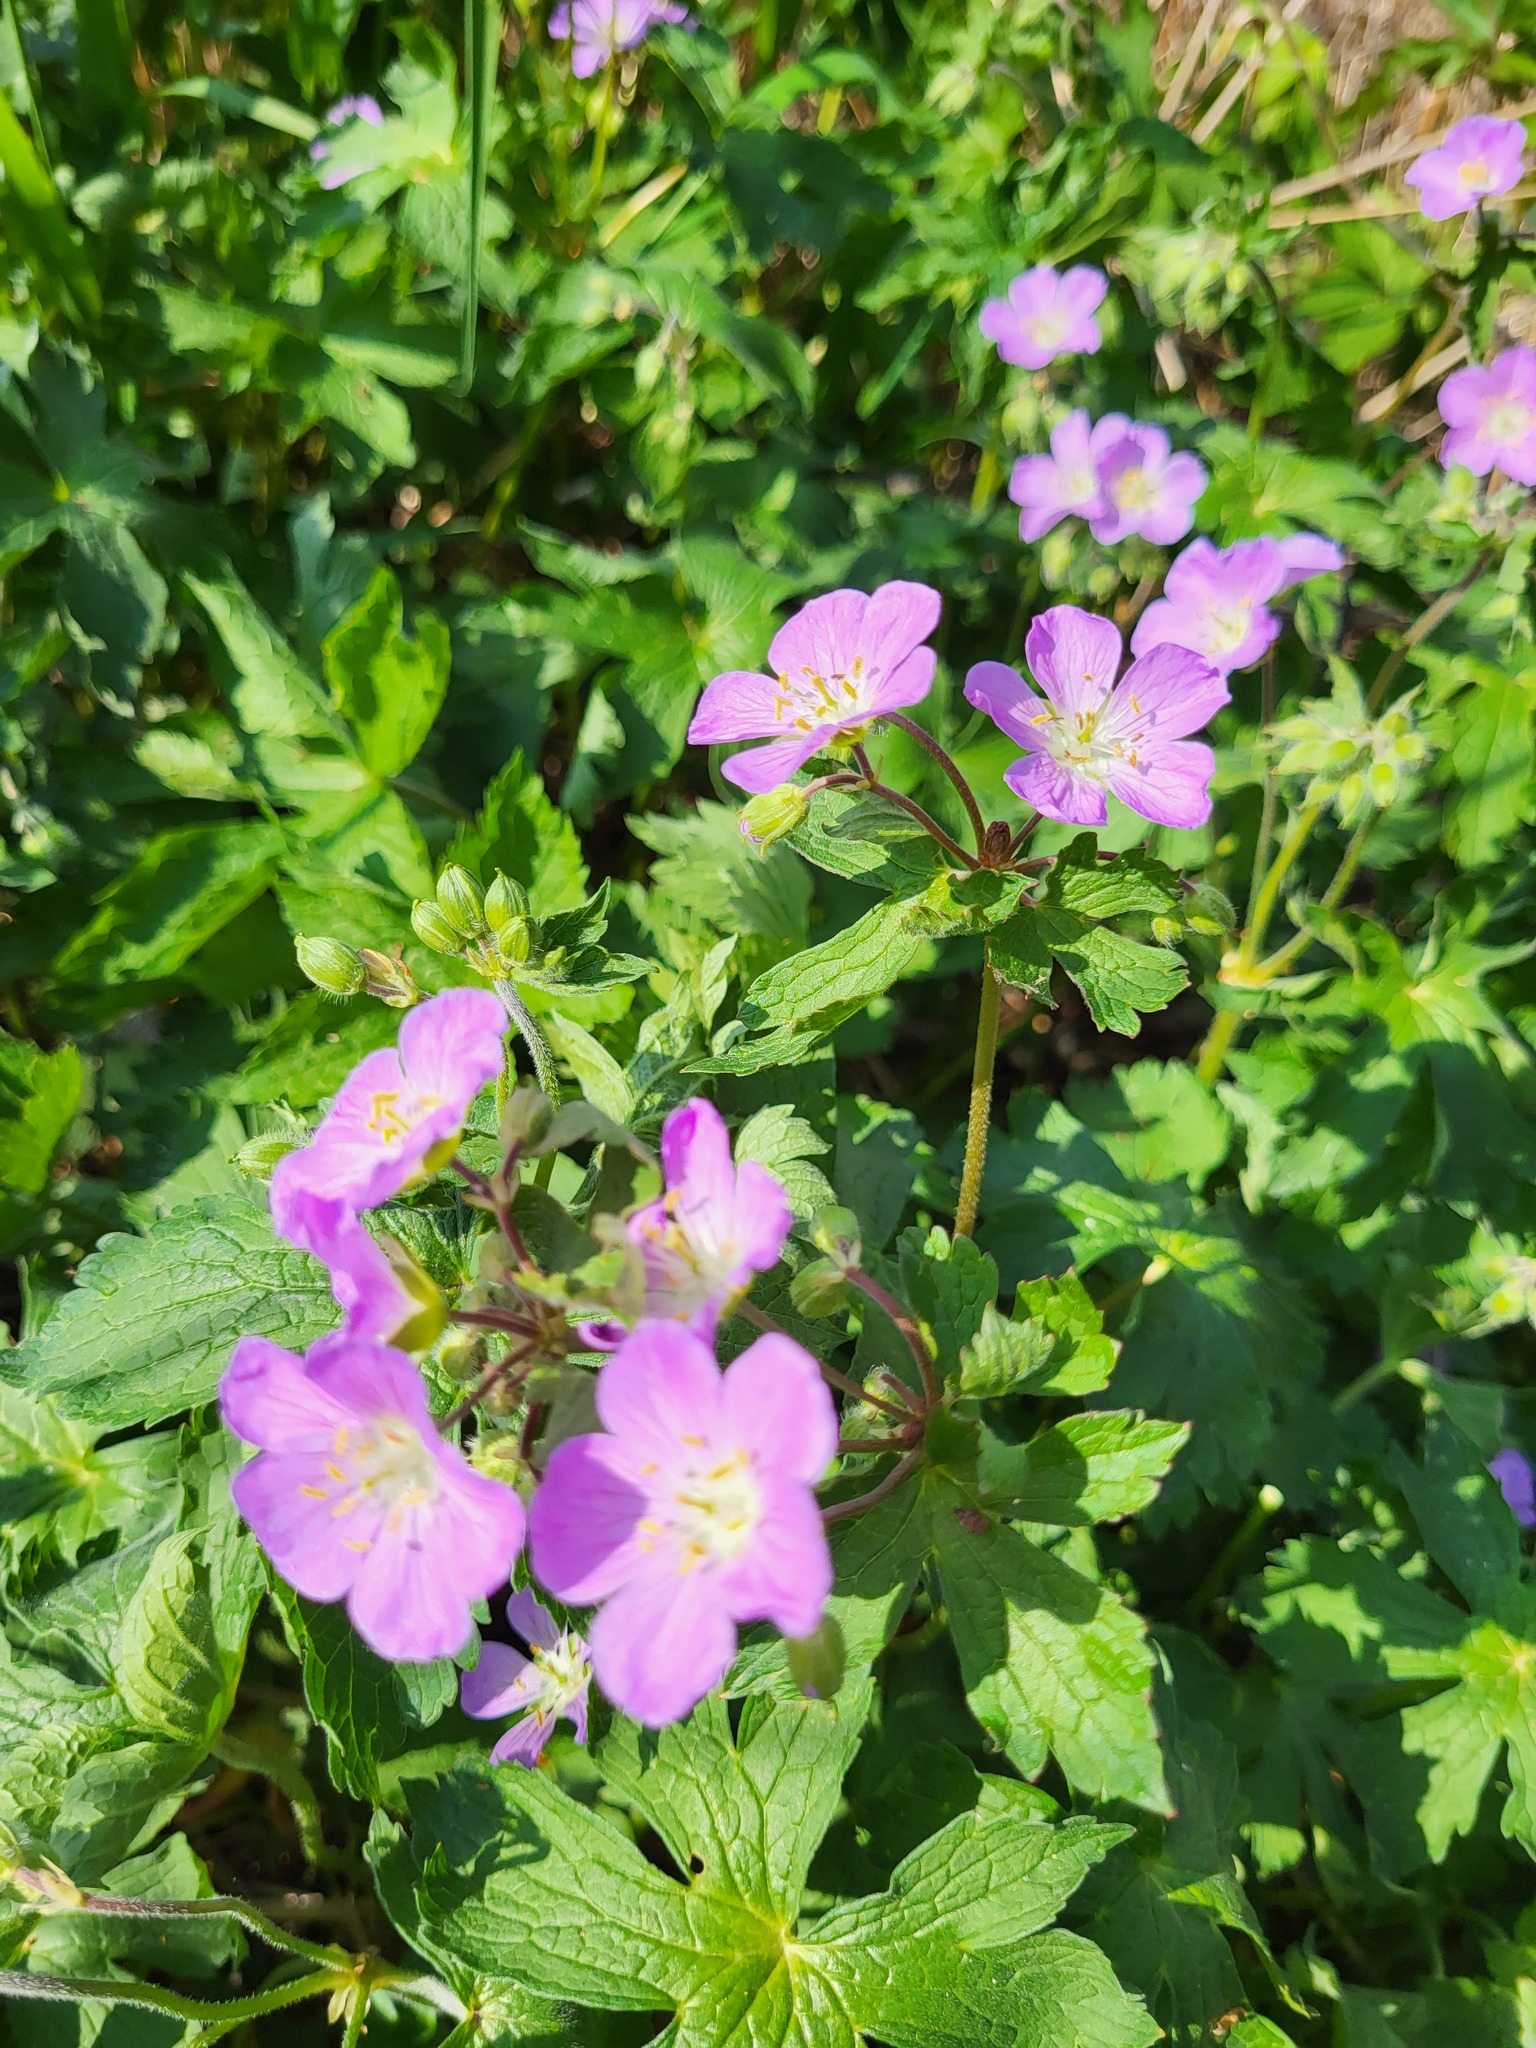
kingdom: Plantae
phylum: Tracheophyta
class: Magnoliopsida
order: Geraniales
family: Geraniaceae
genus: Geranium
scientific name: Geranium maculatum
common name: Spotted geranium
